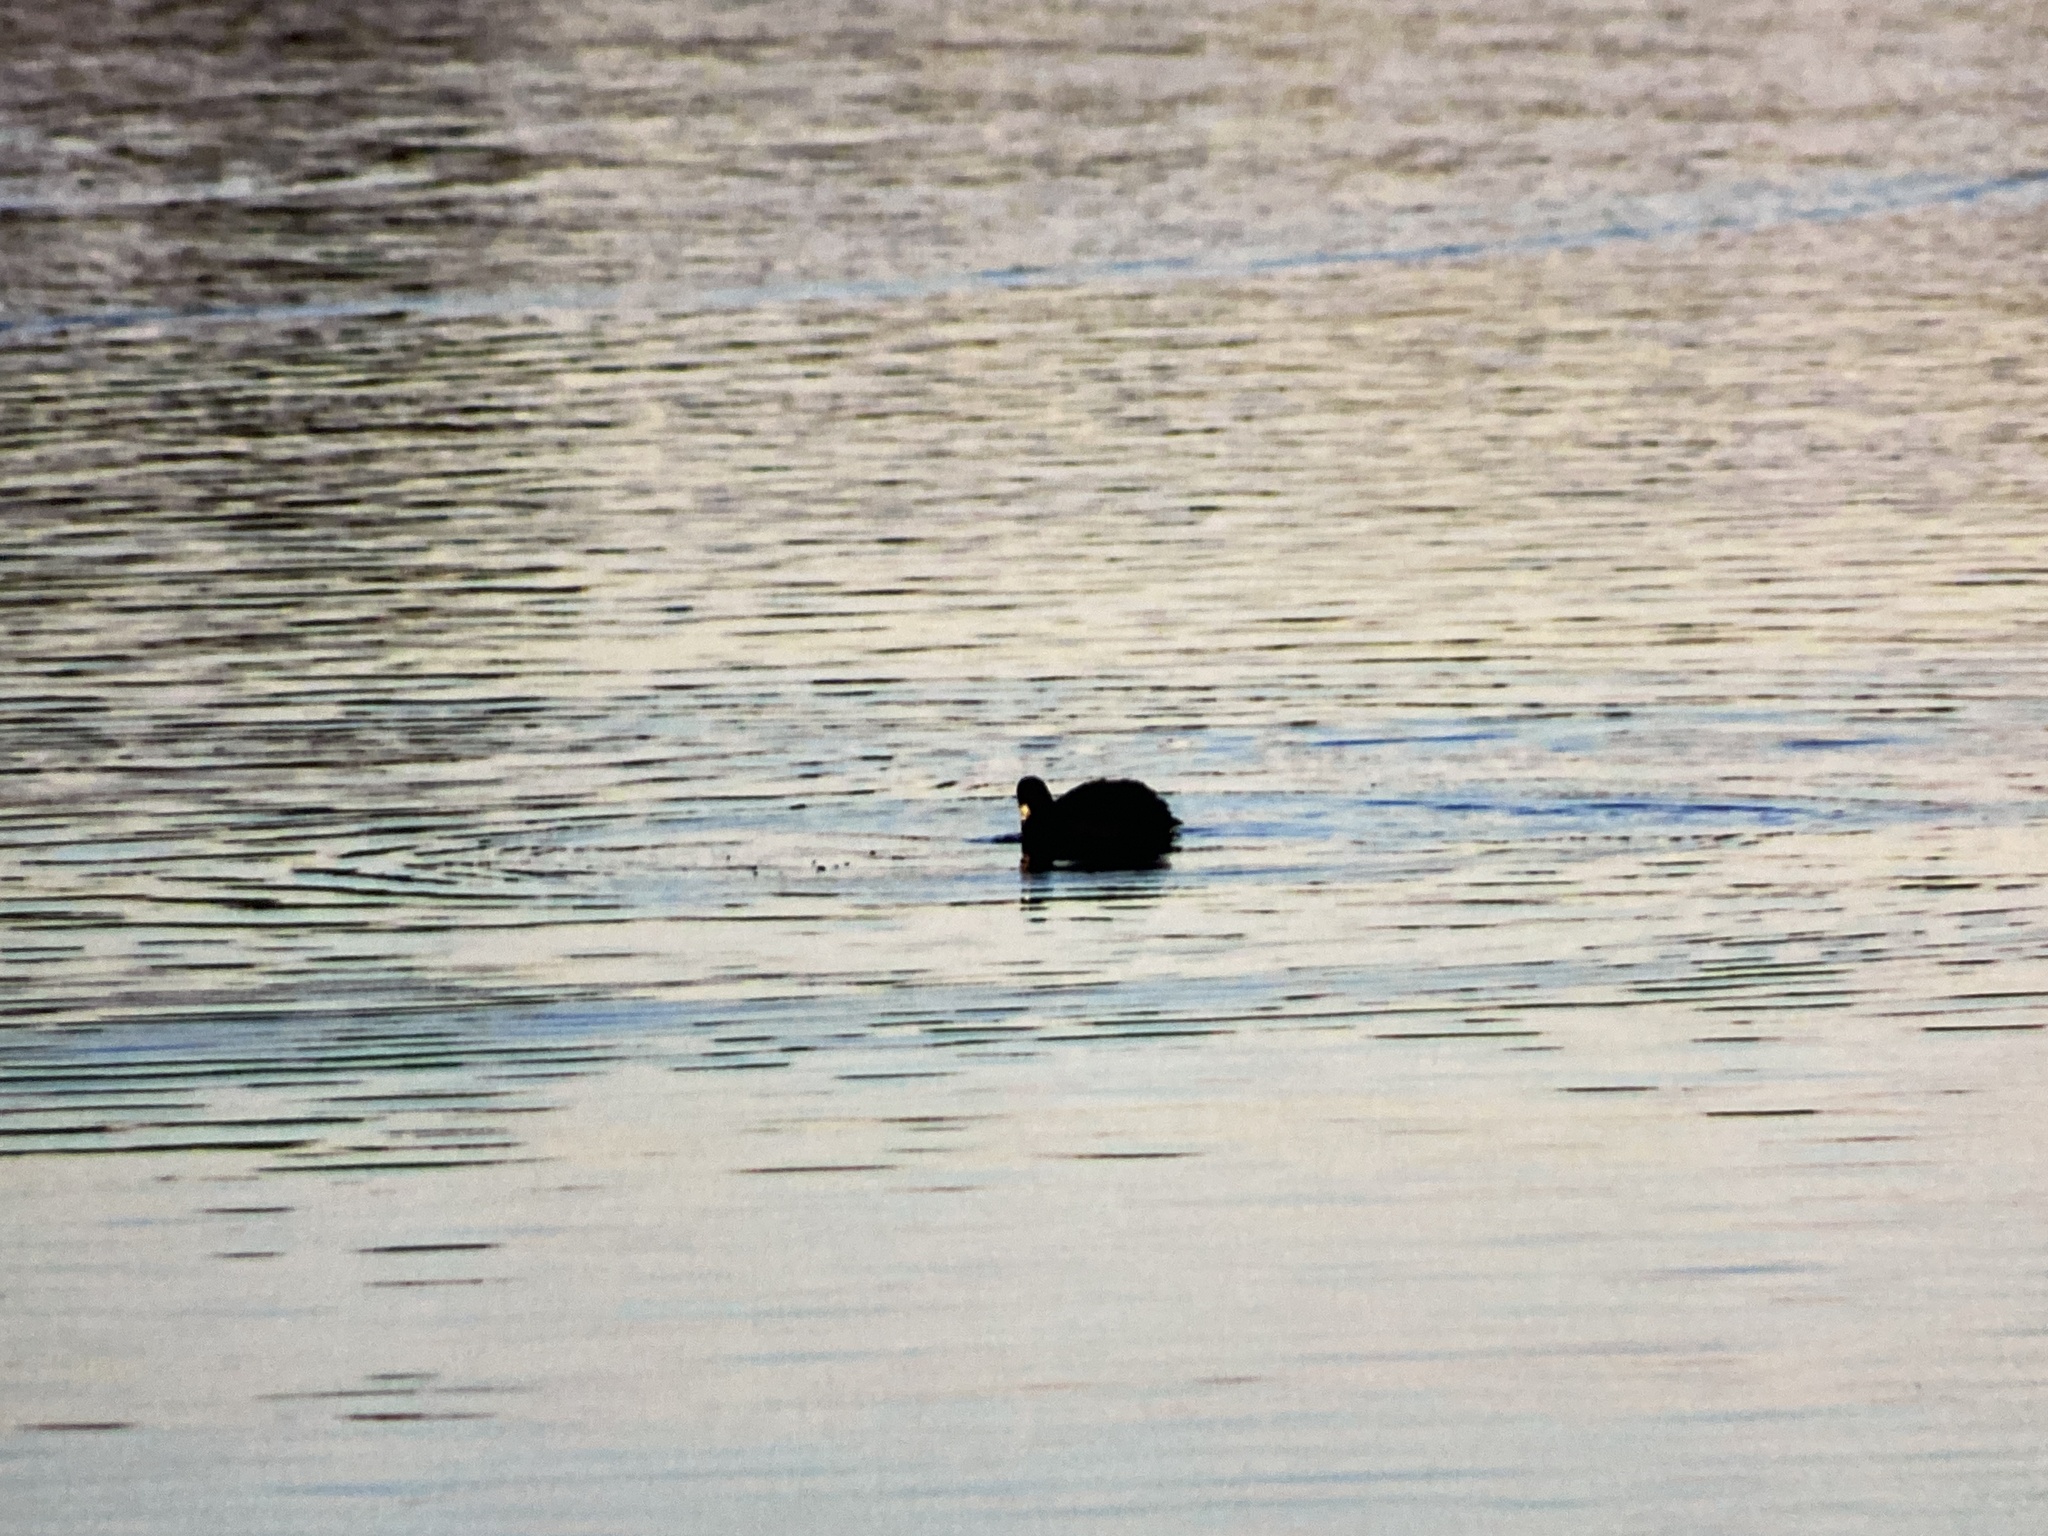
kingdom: Animalia
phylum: Chordata
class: Aves
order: Gruiformes
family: Rallidae
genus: Fulica
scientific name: Fulica americana
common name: American coot
